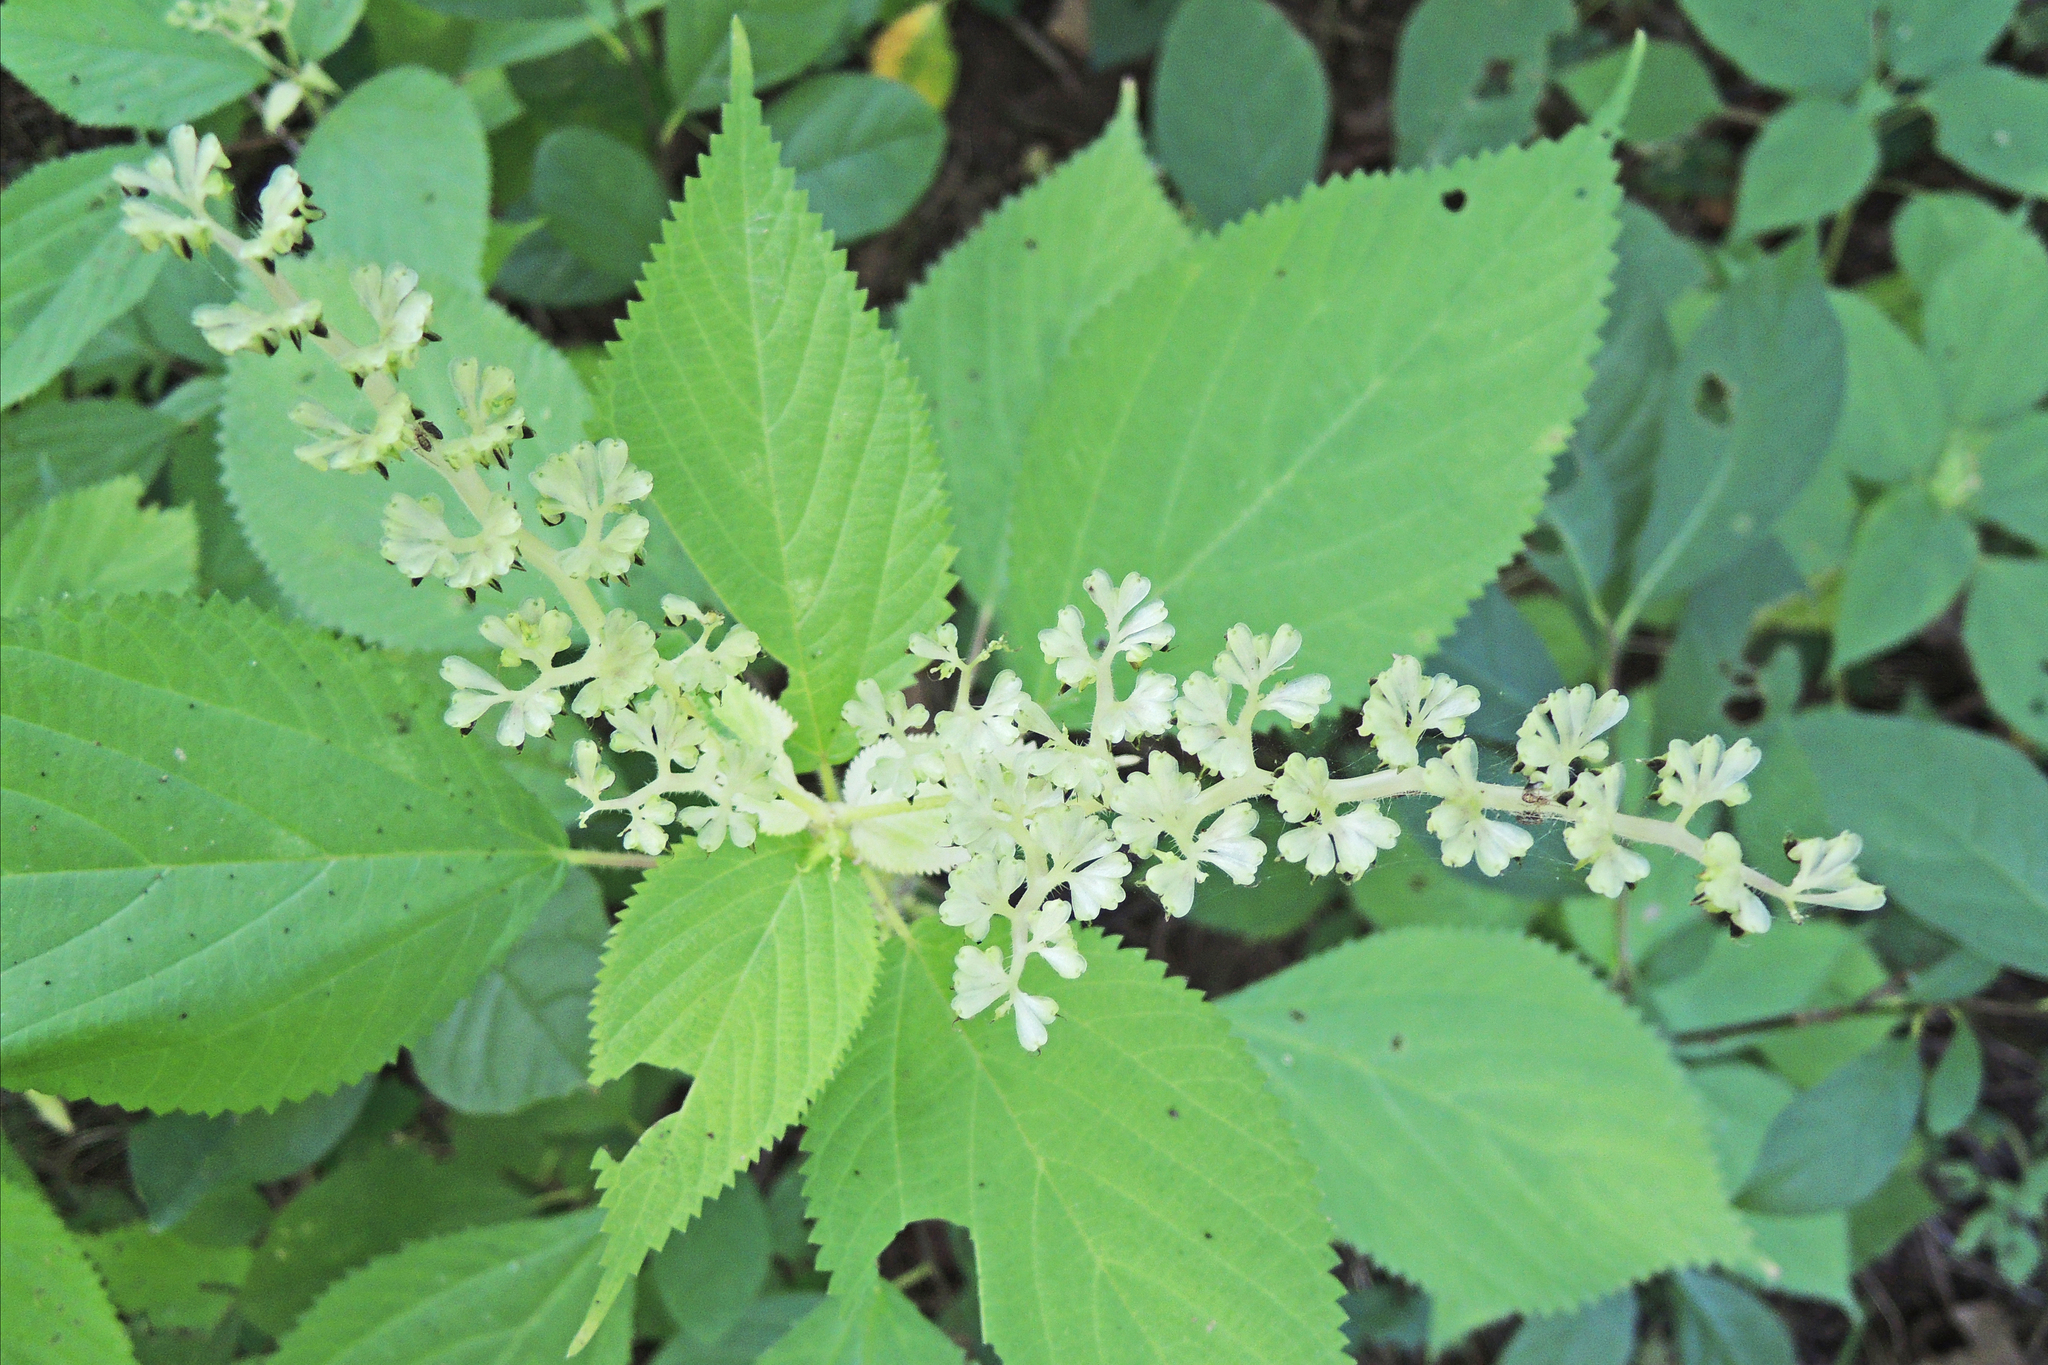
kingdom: Plantae
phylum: Tracheophyta
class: Magnoliopsida
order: Rosales
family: Urticaceae
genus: Laportea
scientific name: Laportea canadensis
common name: Canada nettle
